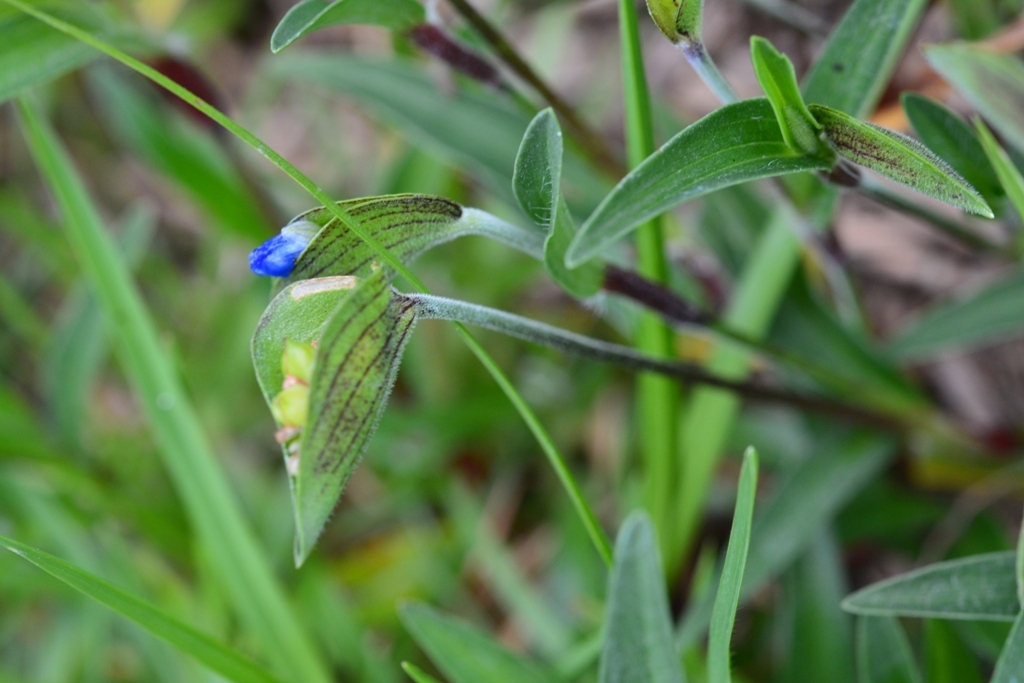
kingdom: Plantae
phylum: Tracheophyta
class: Liliopsida
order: Commelinales
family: Commelinaceae
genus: Commelina
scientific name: Commelina tuberosa
